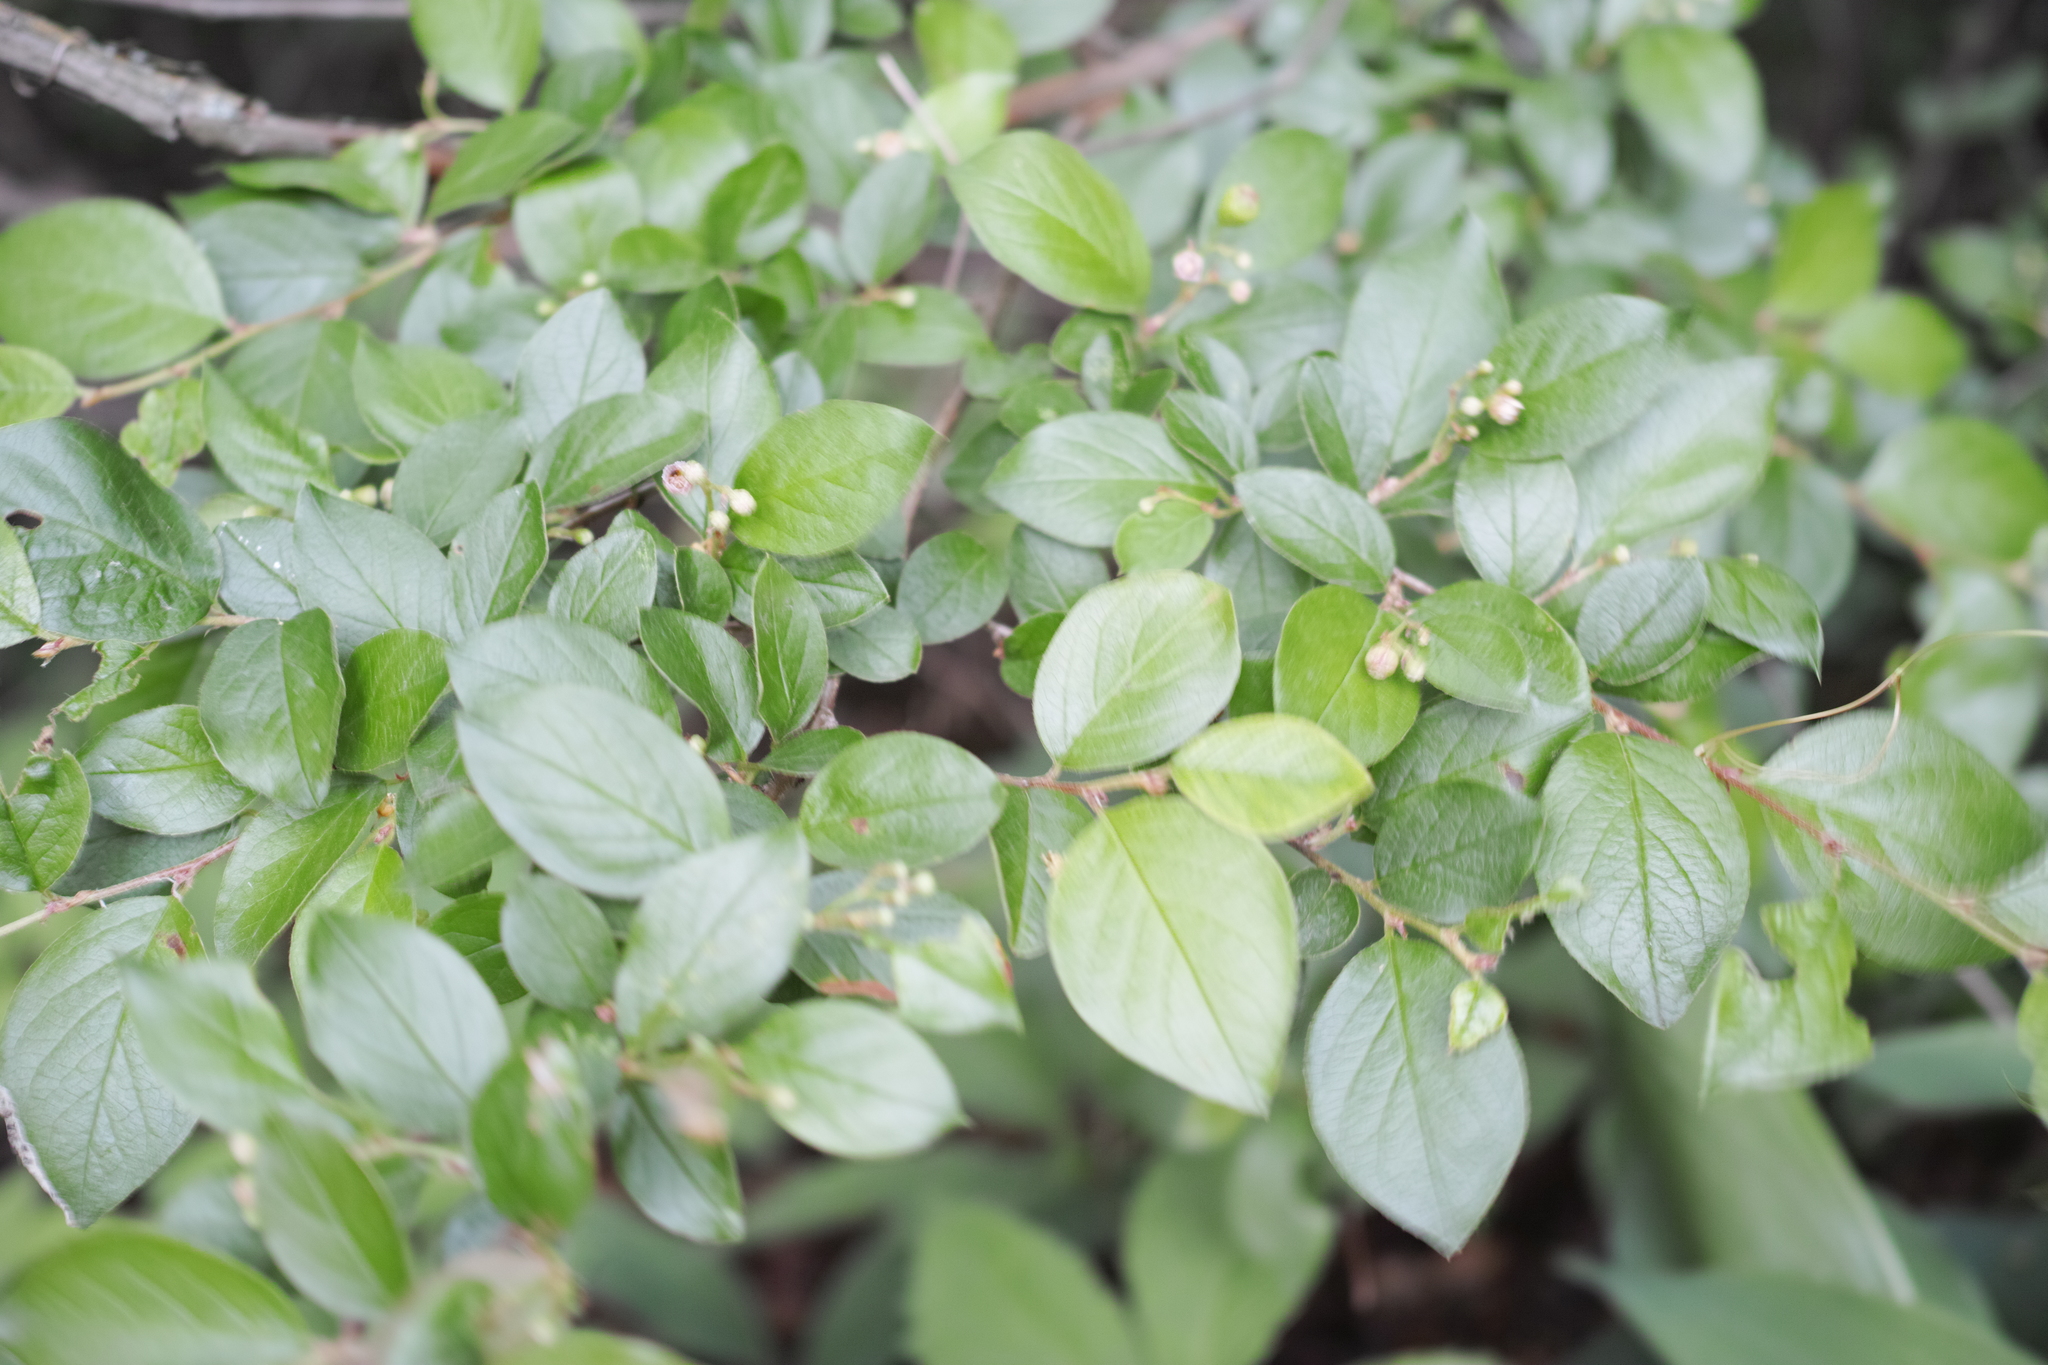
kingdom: Plantae
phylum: Tracheophyta
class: Magnoliopsida
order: Rosales
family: Rosaceae
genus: Cotoneaster
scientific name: Cotoneaster acutifolius
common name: Peking cotoneaster
